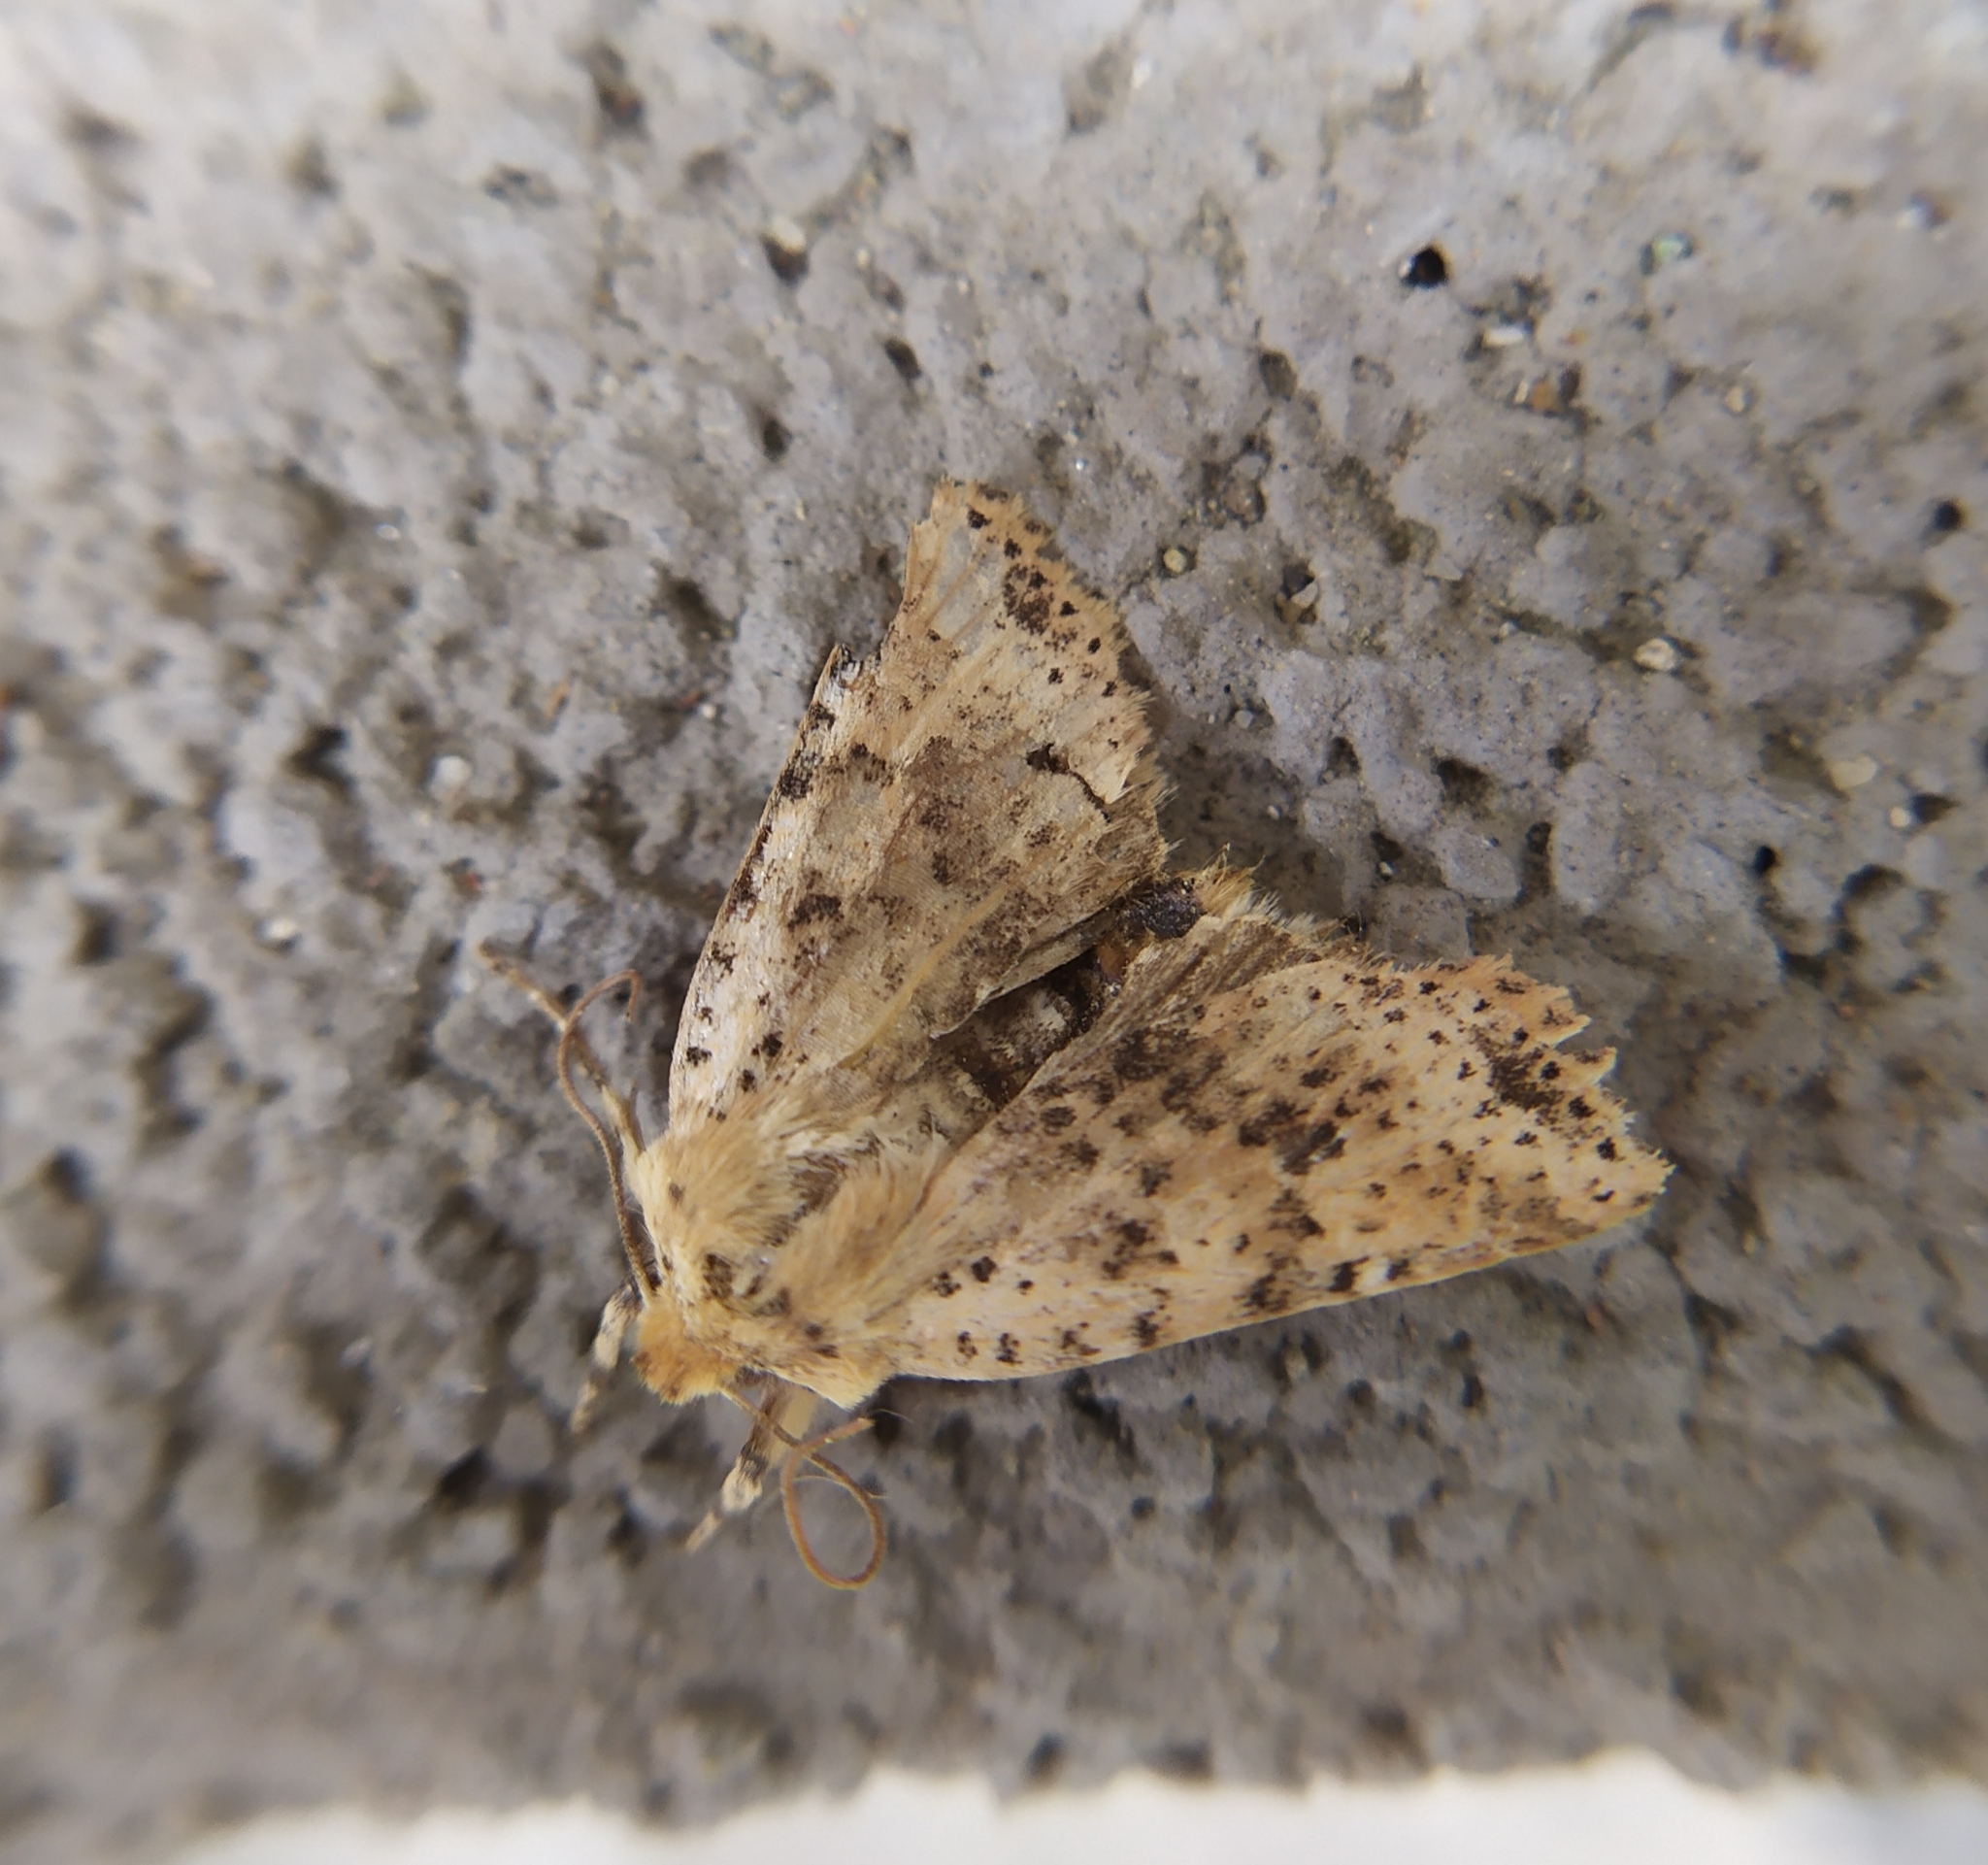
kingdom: Animalia
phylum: Arthropoda
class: Insecta
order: Lepidoptera
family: Noctuidae
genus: Conistra
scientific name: Conistra rubiginea
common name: Dotted chestnut
